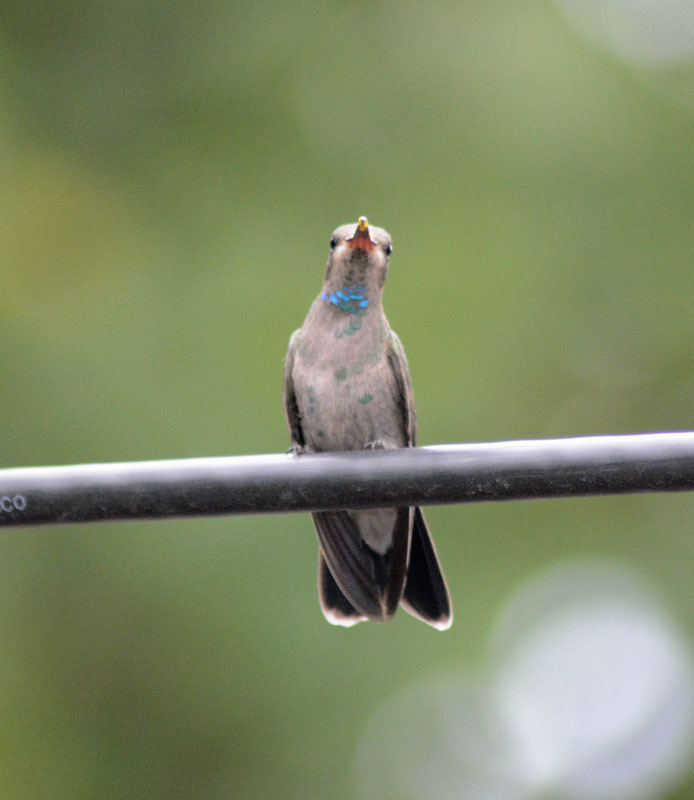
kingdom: Animalia
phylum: Chordata
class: Aves
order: Apodiformes
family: Trochilidae
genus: Cynanthus
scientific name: Cynanthus latirostris
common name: Broad-billed hummingbird
